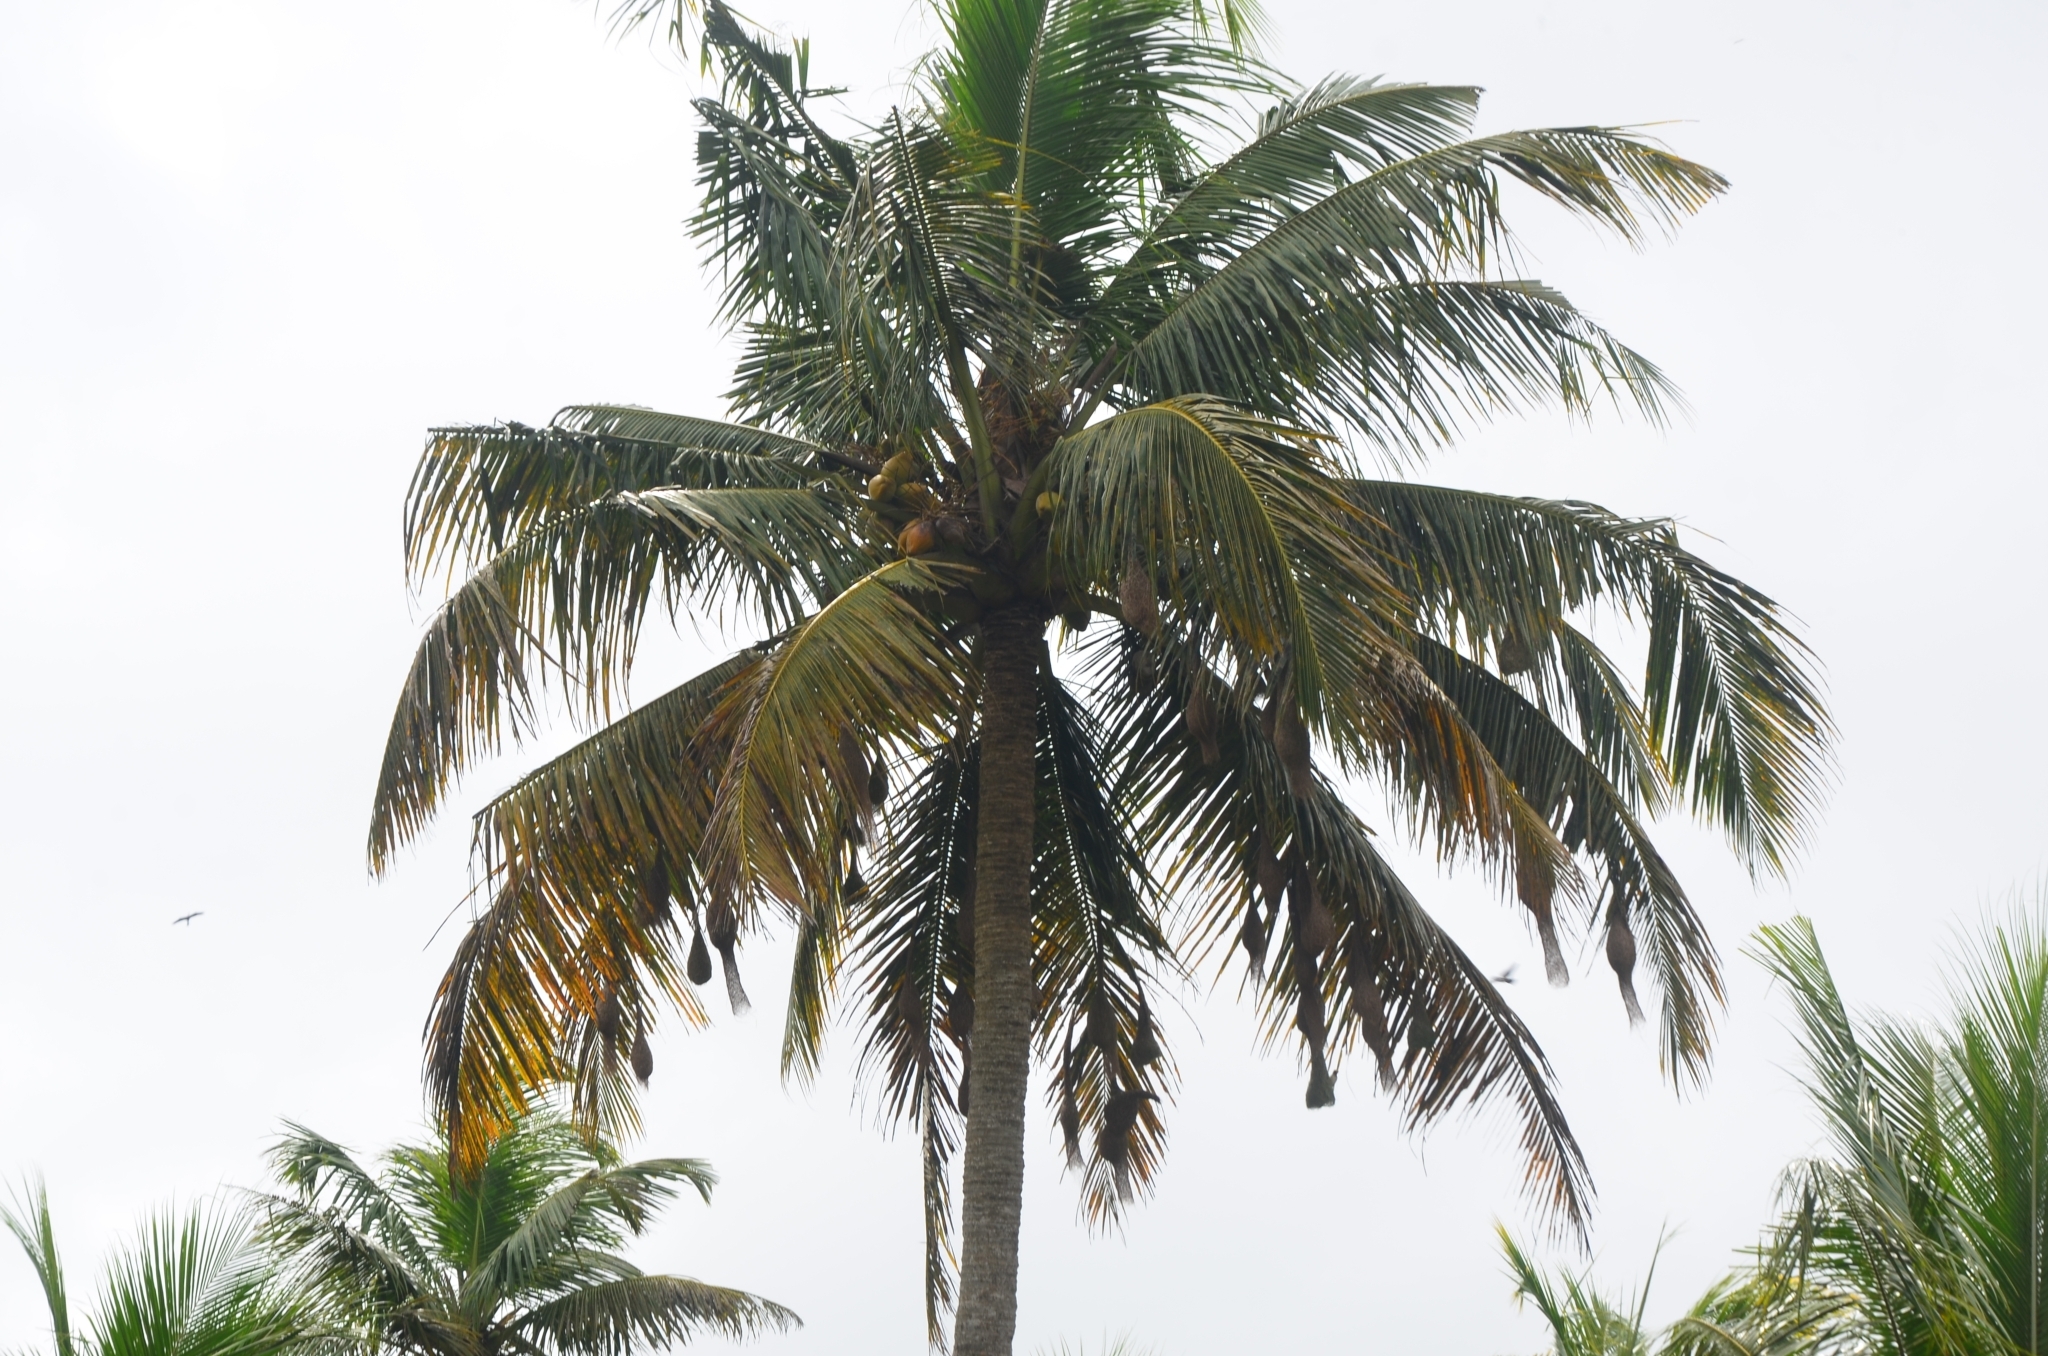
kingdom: Animalia
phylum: Chordata
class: Aves
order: Passeriformes
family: Ploceidae
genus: Ploceus
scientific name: Ploceus philippinus
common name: Baya weaver
